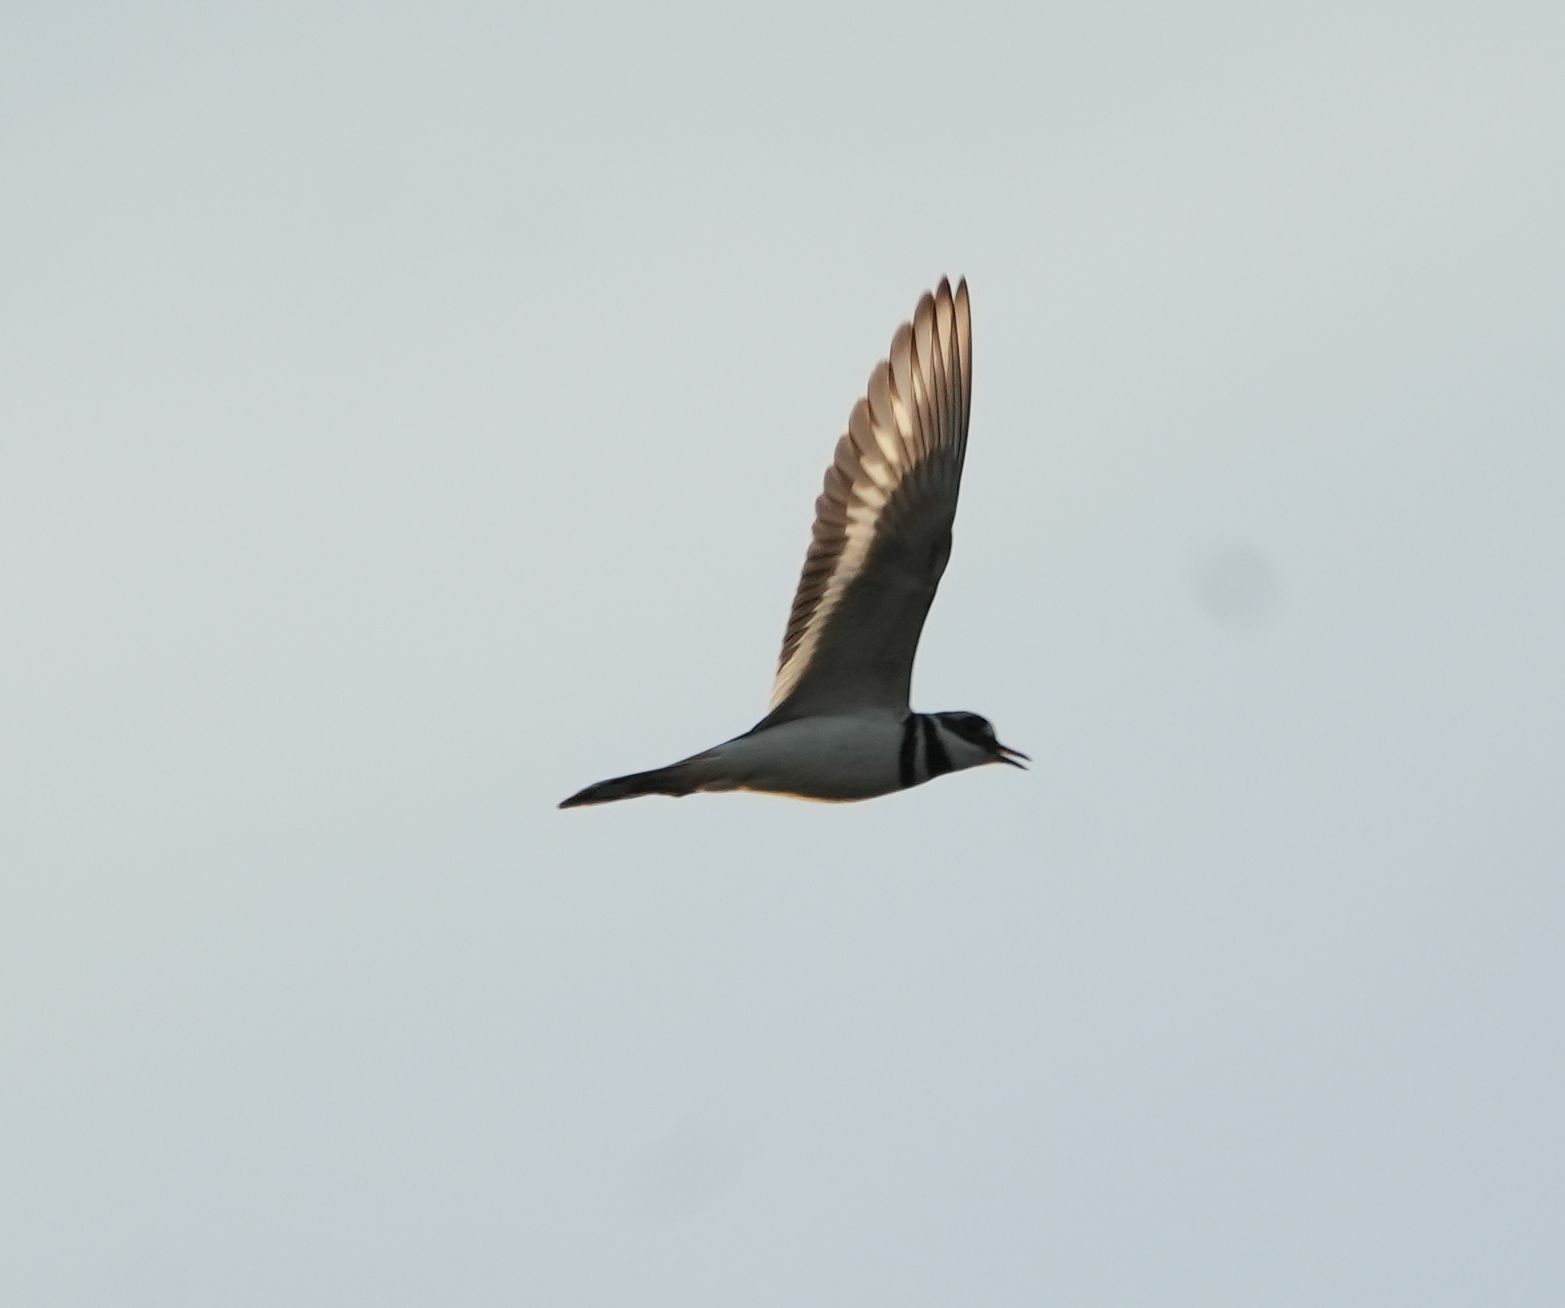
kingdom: Animalia
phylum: Chordata
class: Aves
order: Charadriiformes
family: Charadriidae
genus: Charadrius
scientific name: Charadrius vociferus
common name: Killdeer
